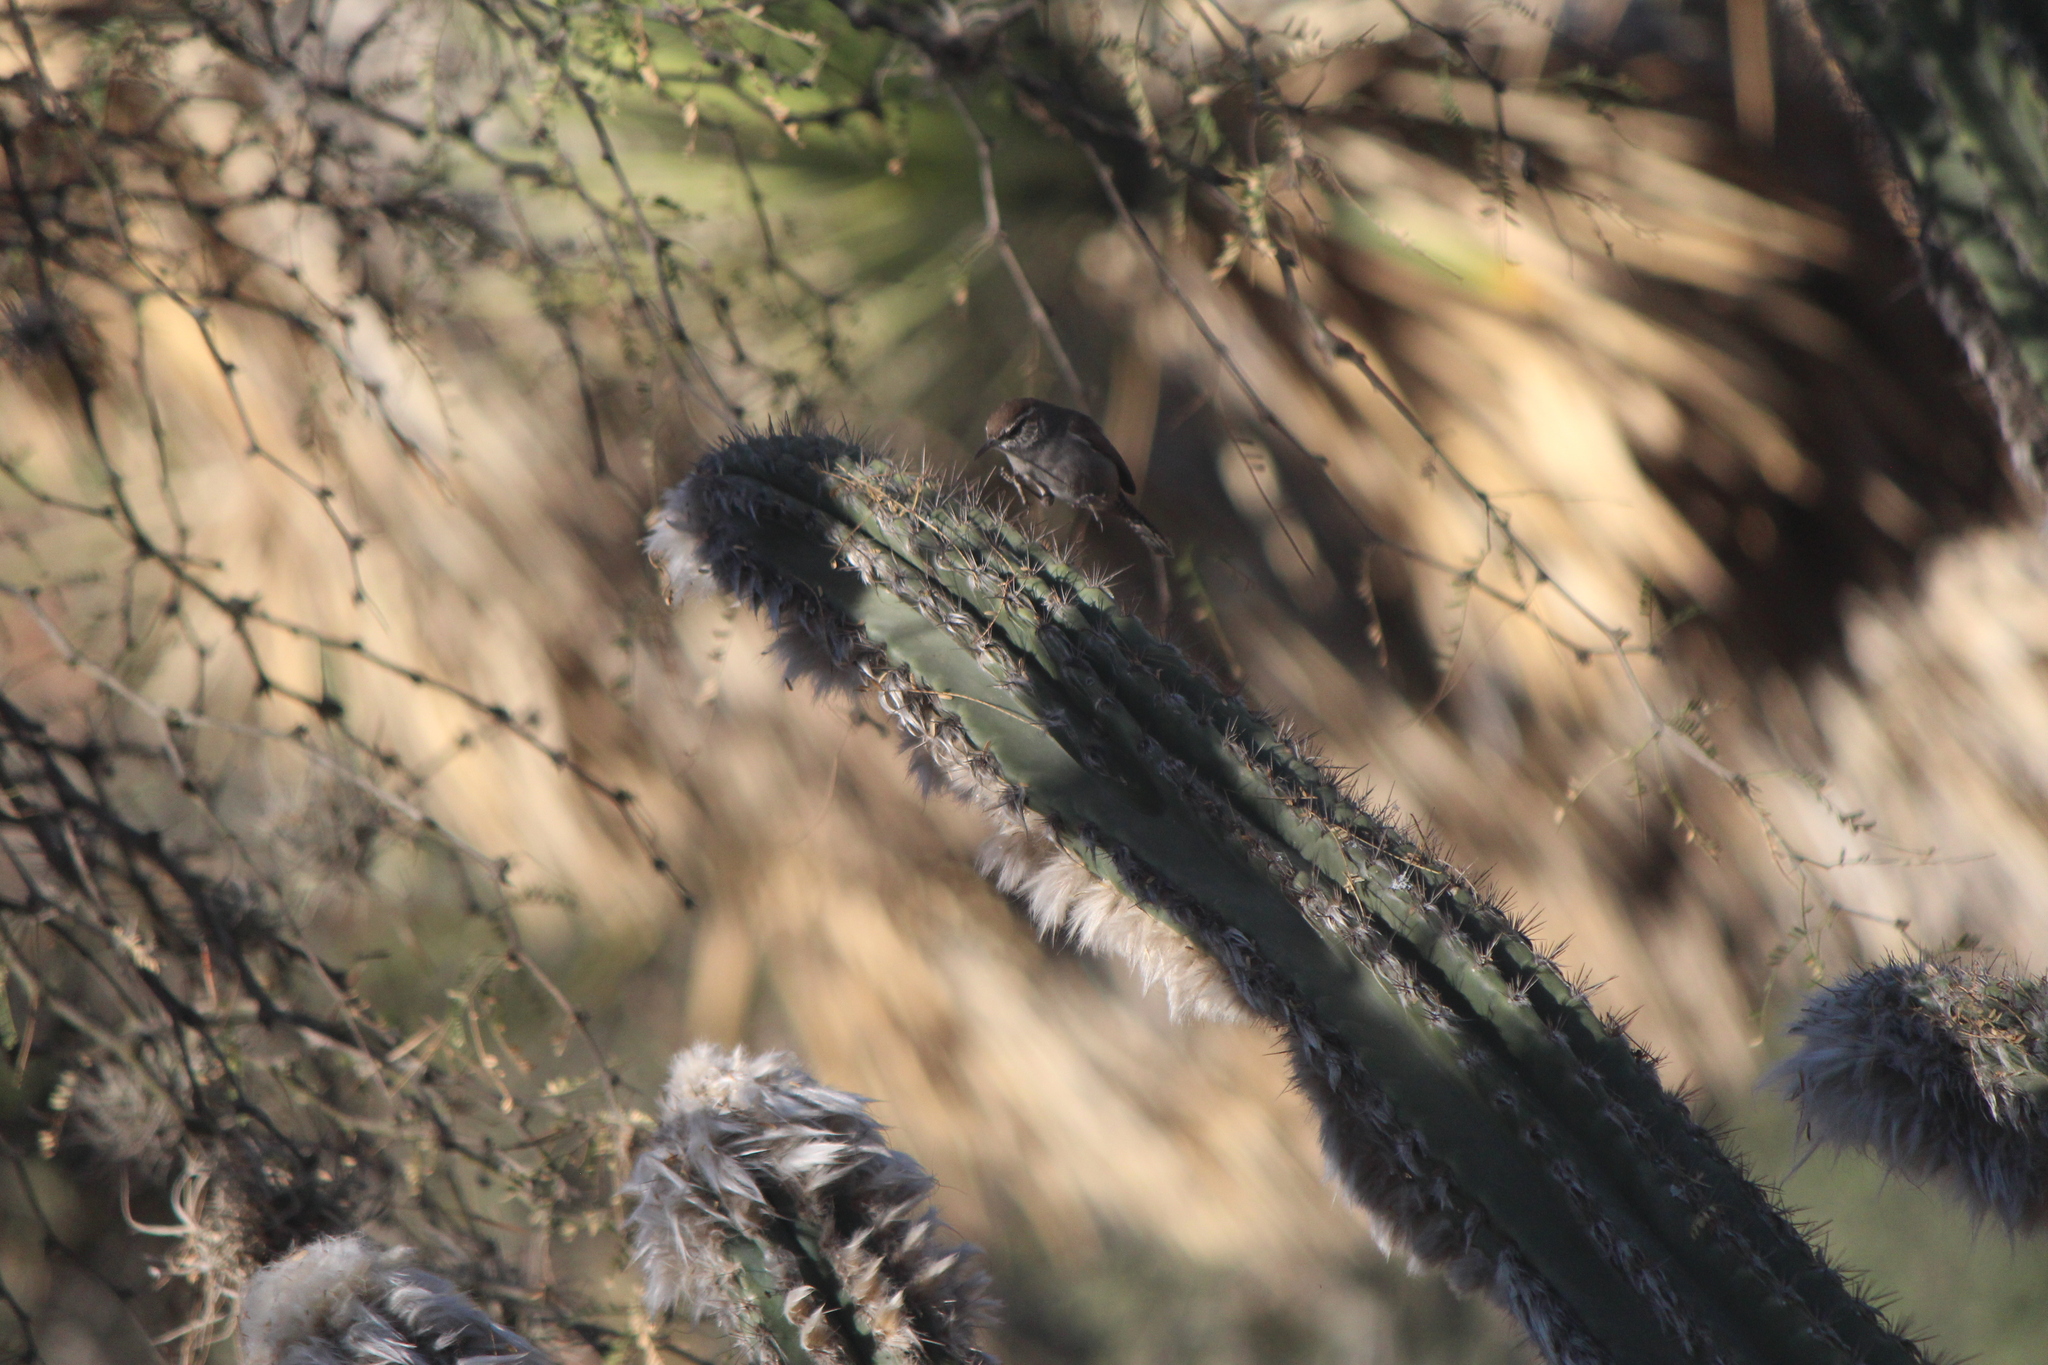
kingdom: Animalia
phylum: Chordata
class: Aves
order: Passeriformes
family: Troglodytidae
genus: Thryomanes
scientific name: Thryomanes bewickii
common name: Bewick's wren
